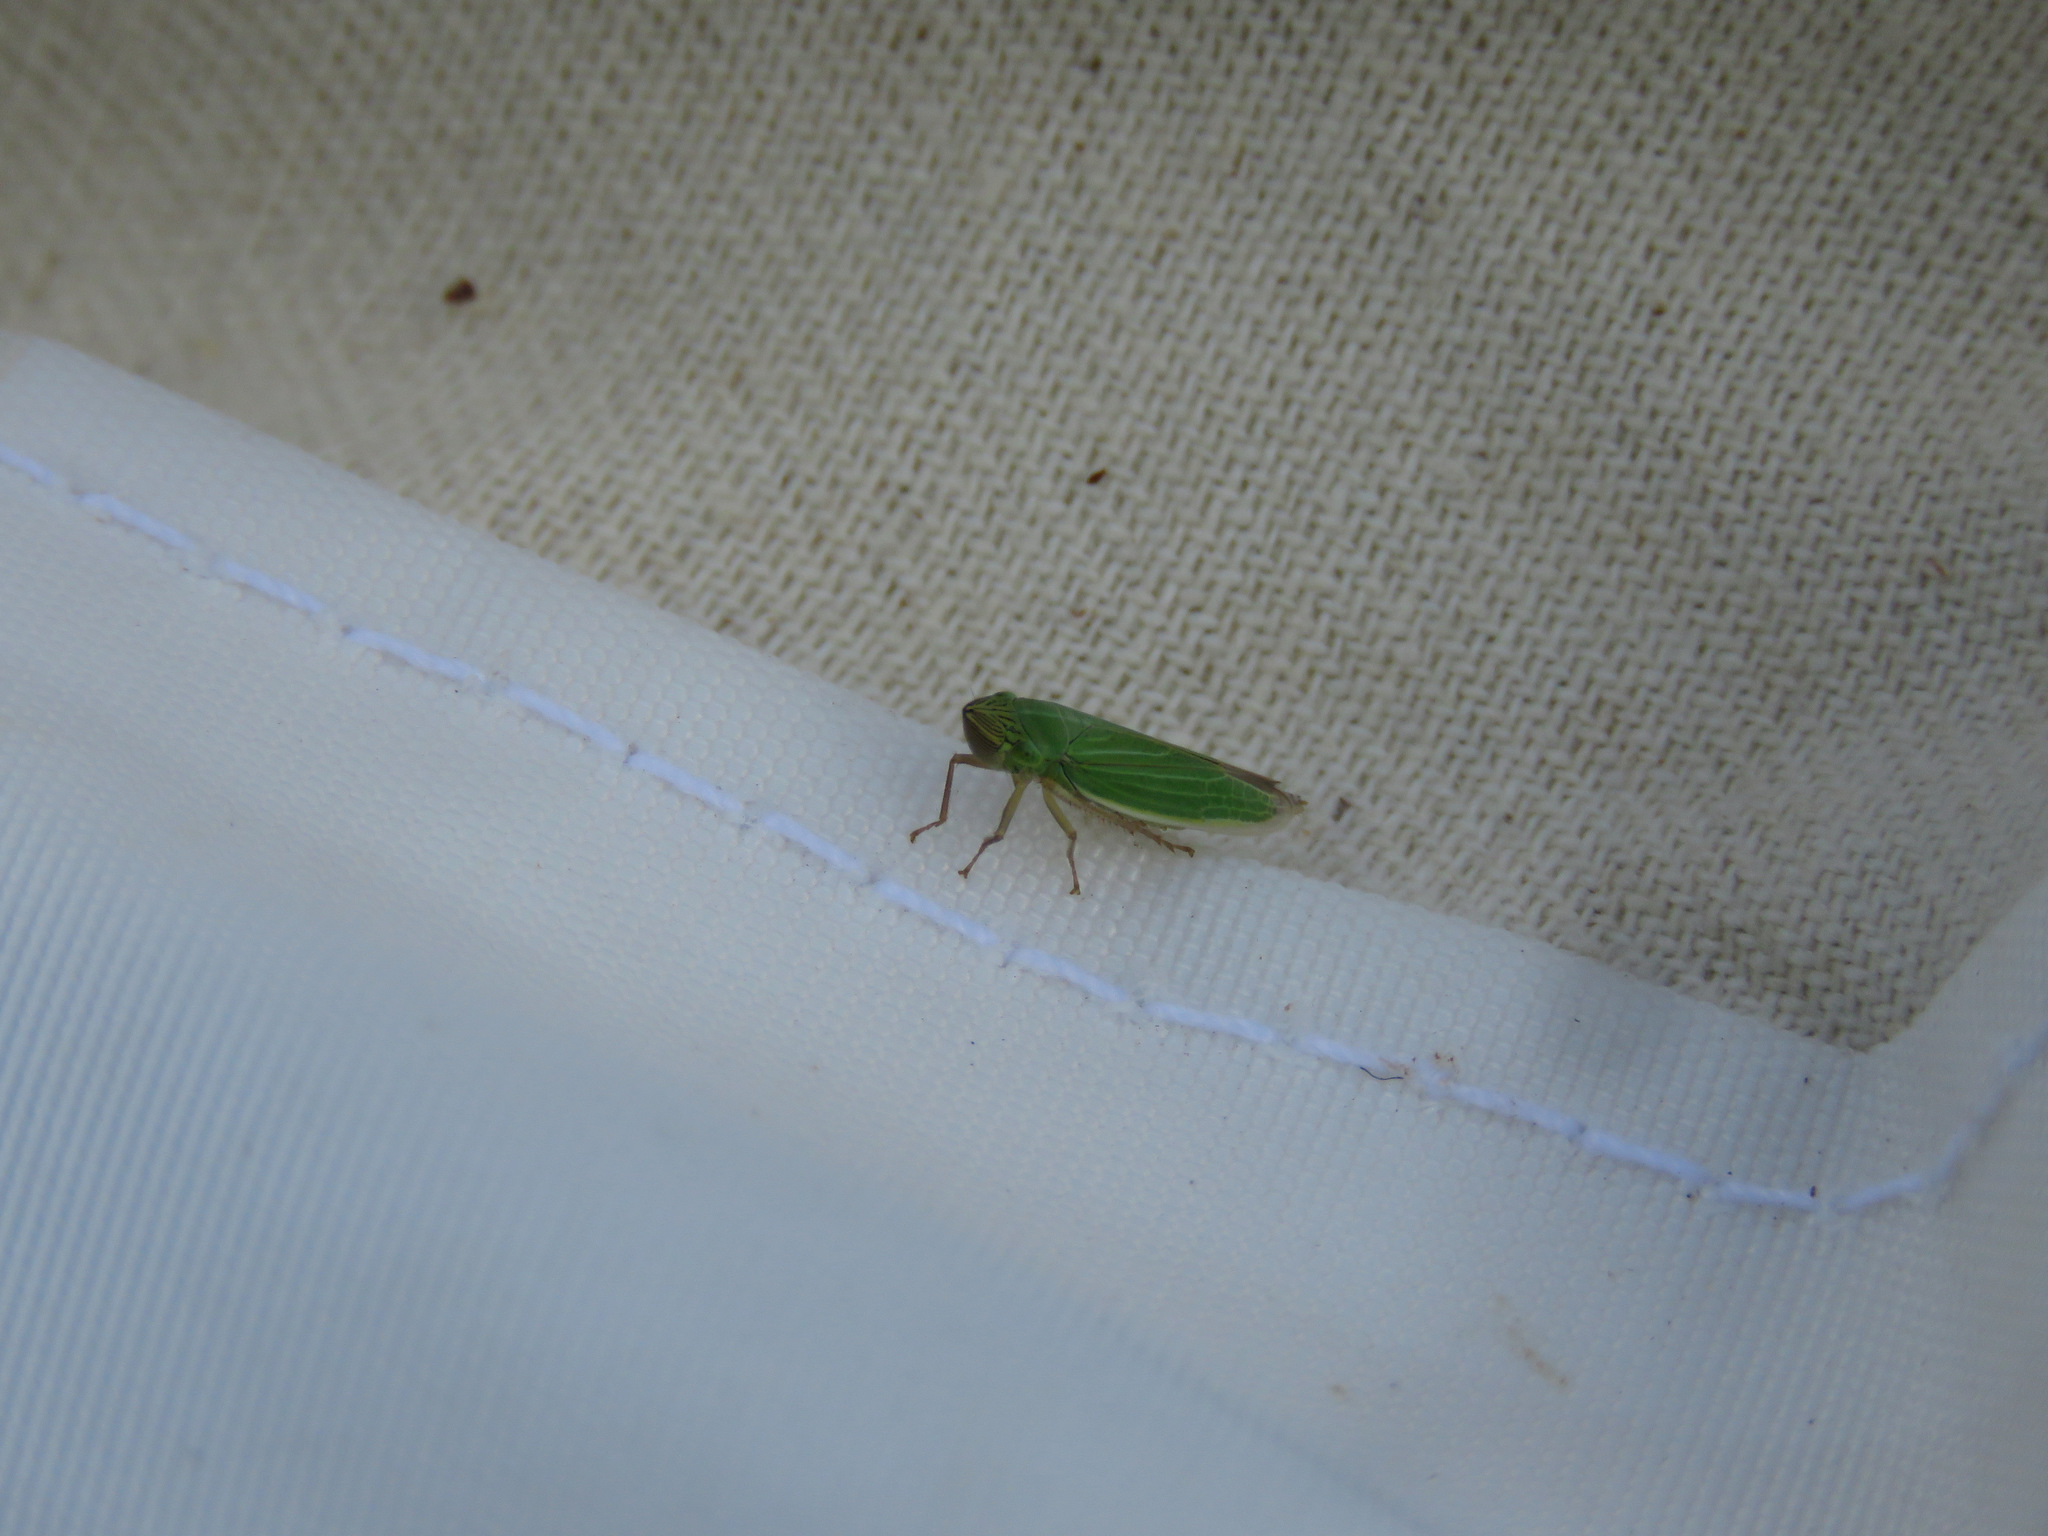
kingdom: Animalia
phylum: Arthropoda
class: Insecta
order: Hemiptera
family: Cicadellidae
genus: Draeculacephala
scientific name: Draeculacephala angulifera
